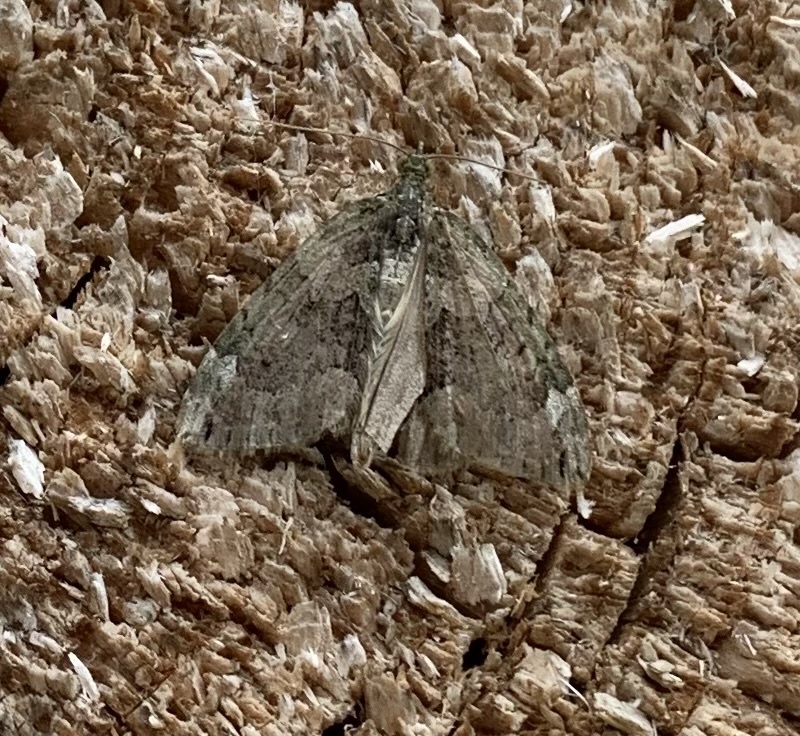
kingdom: Animalia
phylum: Arthropoda
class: Insecta
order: Lepidoptera
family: Geometridae
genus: Chloroclysta
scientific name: Chloroclysta siterata
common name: Red-green carpet
